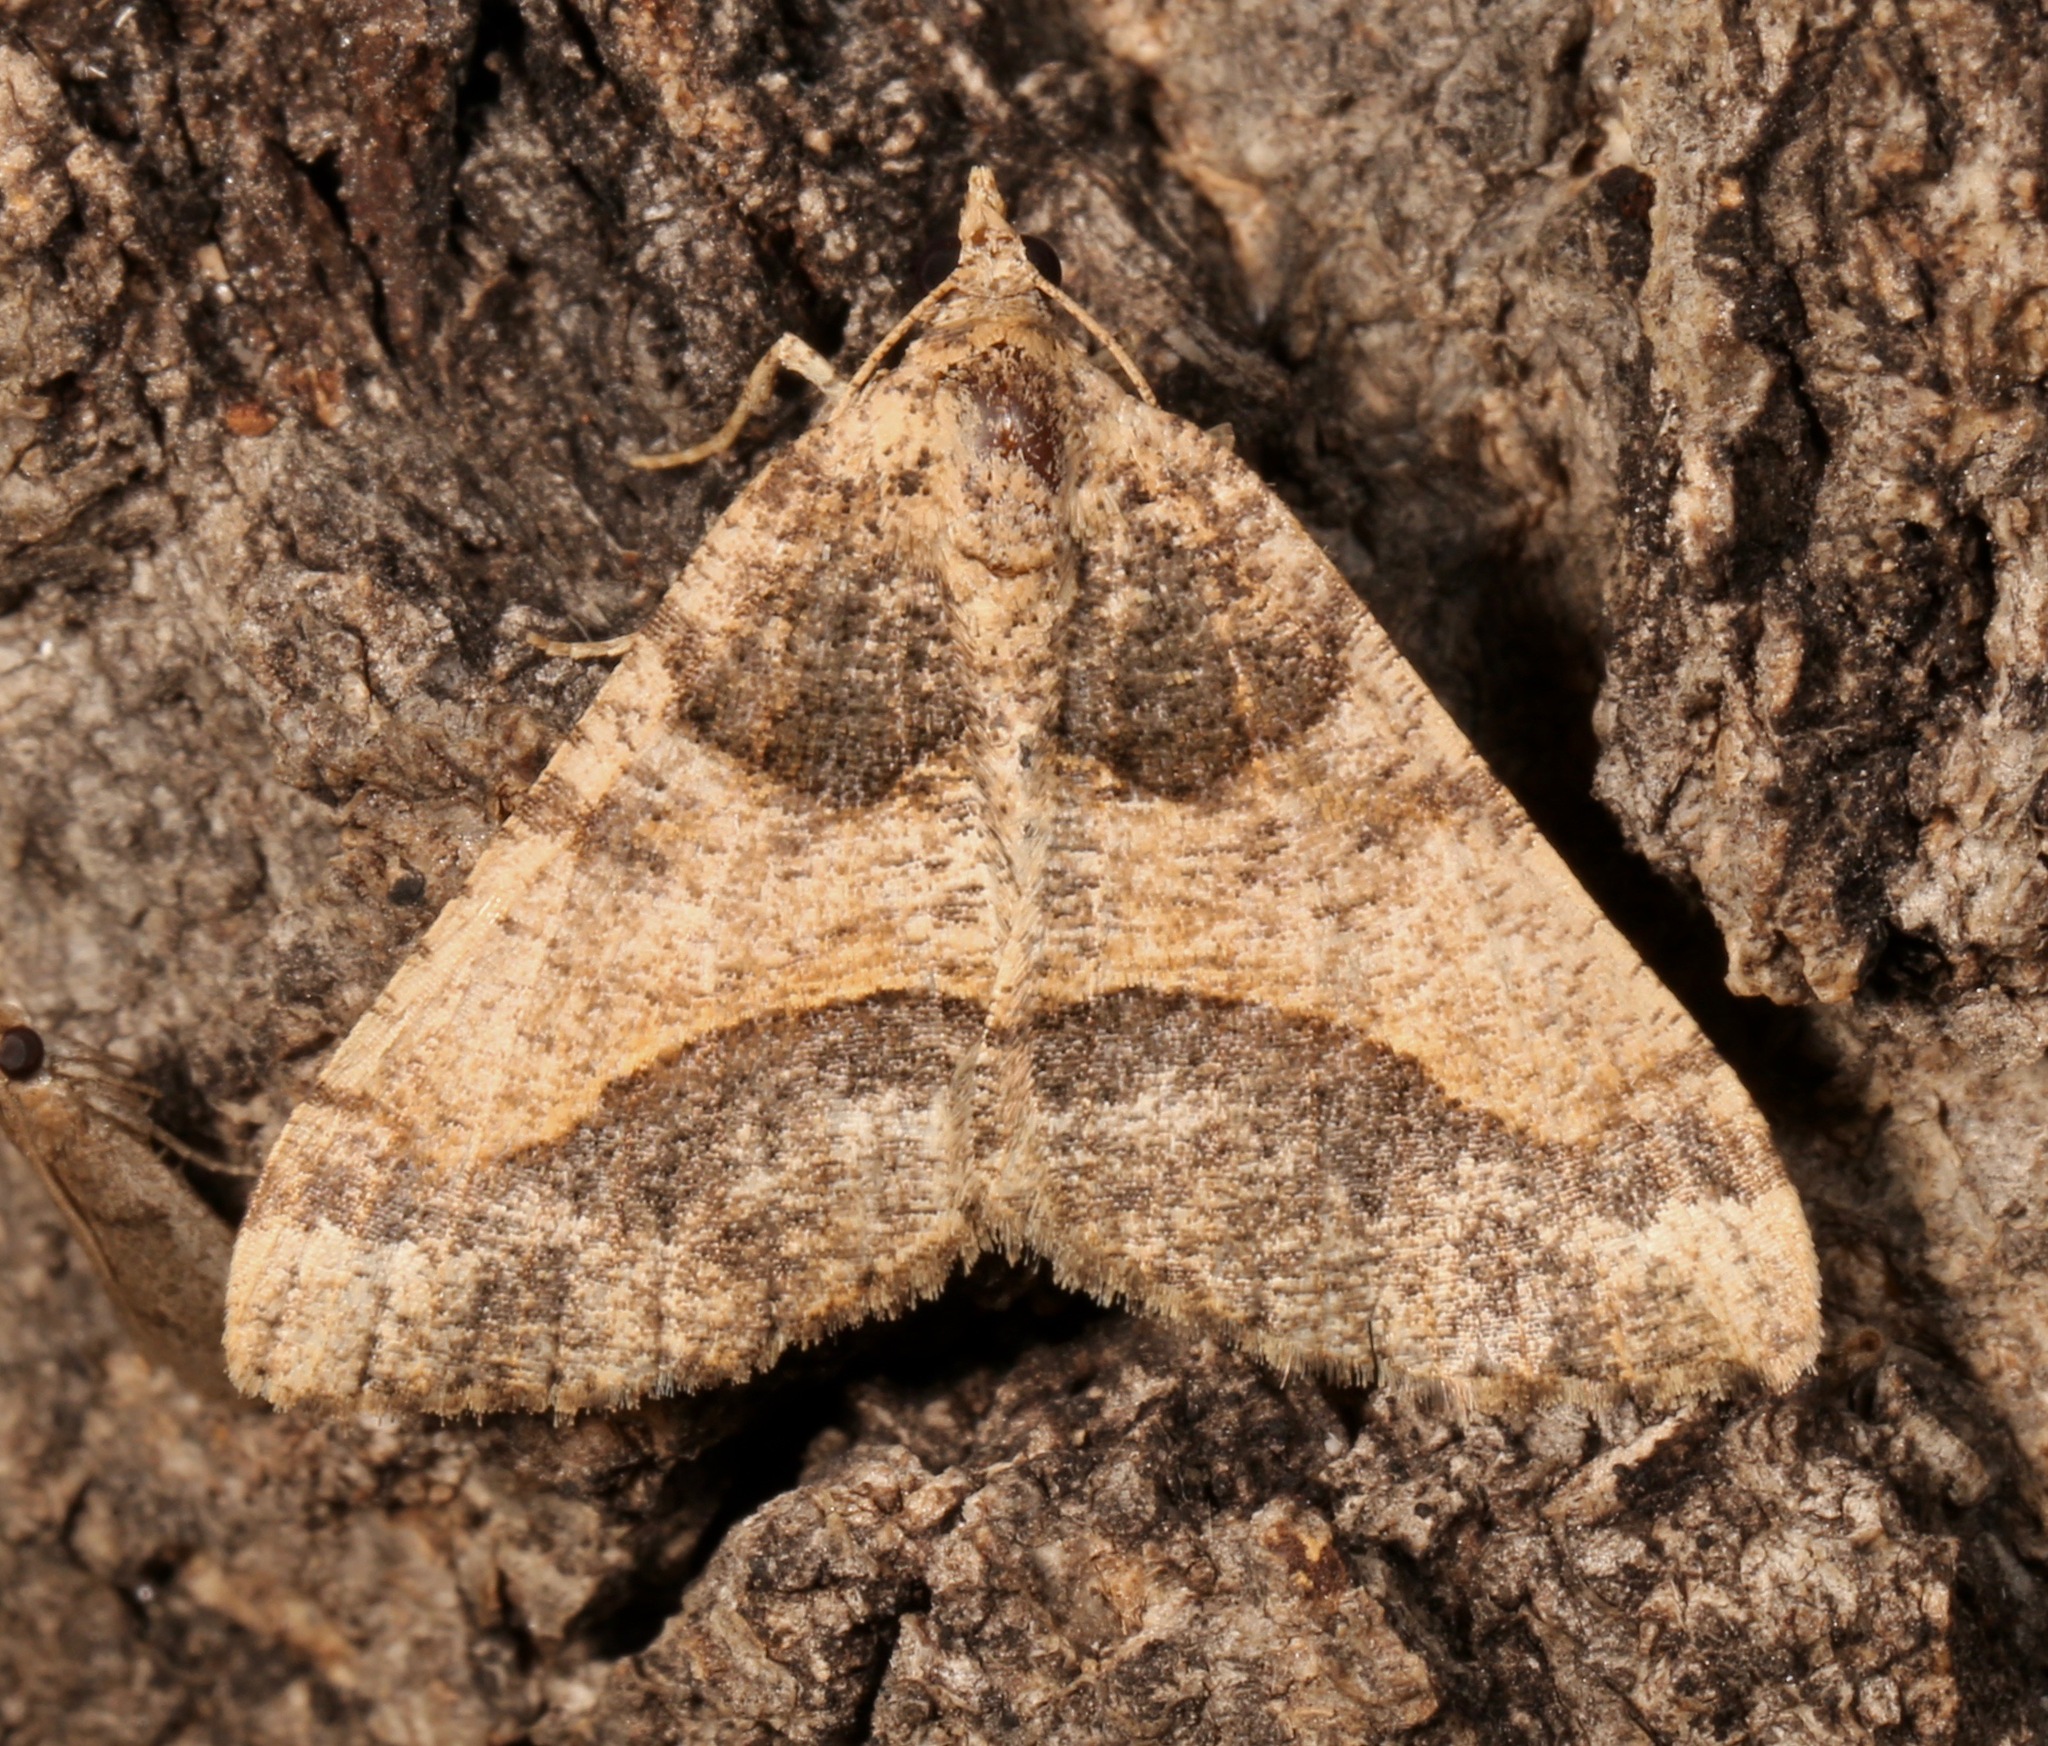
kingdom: Animalia
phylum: Arthropoda
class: Insecta
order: Lepidoptera
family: Geometridae
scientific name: Geometridae
